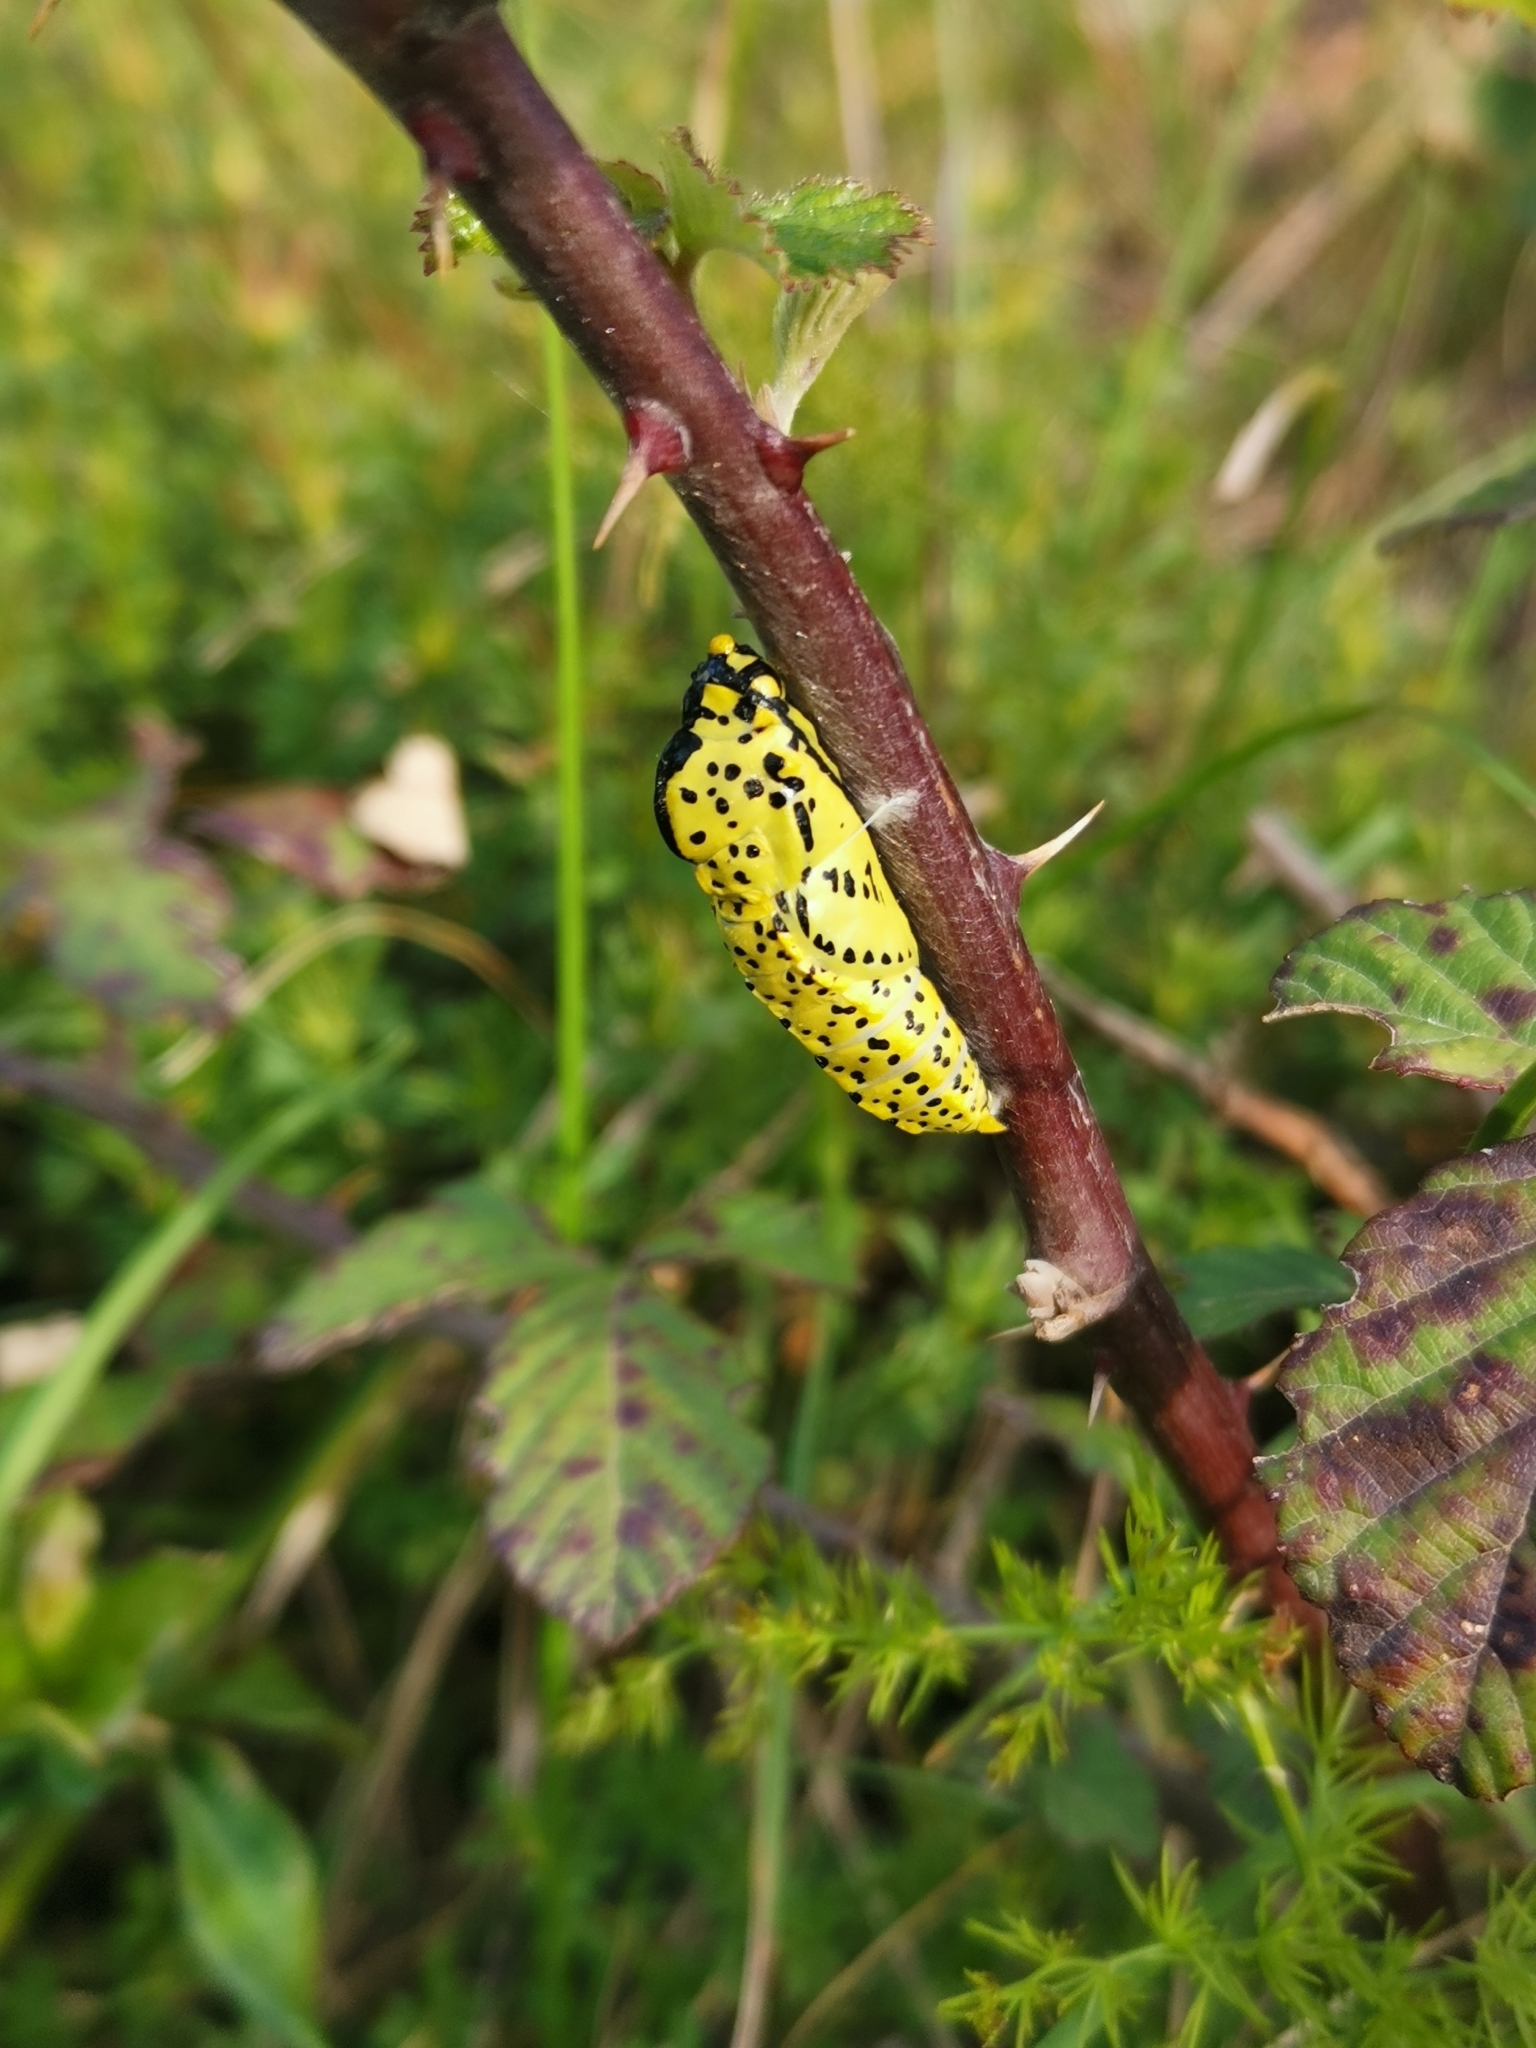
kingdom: Animalia
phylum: Arthropoda
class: Insecta
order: Lepidoptera
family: Pieridae
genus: Aporia
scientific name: Aporia crataegi
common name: Black-veined white
